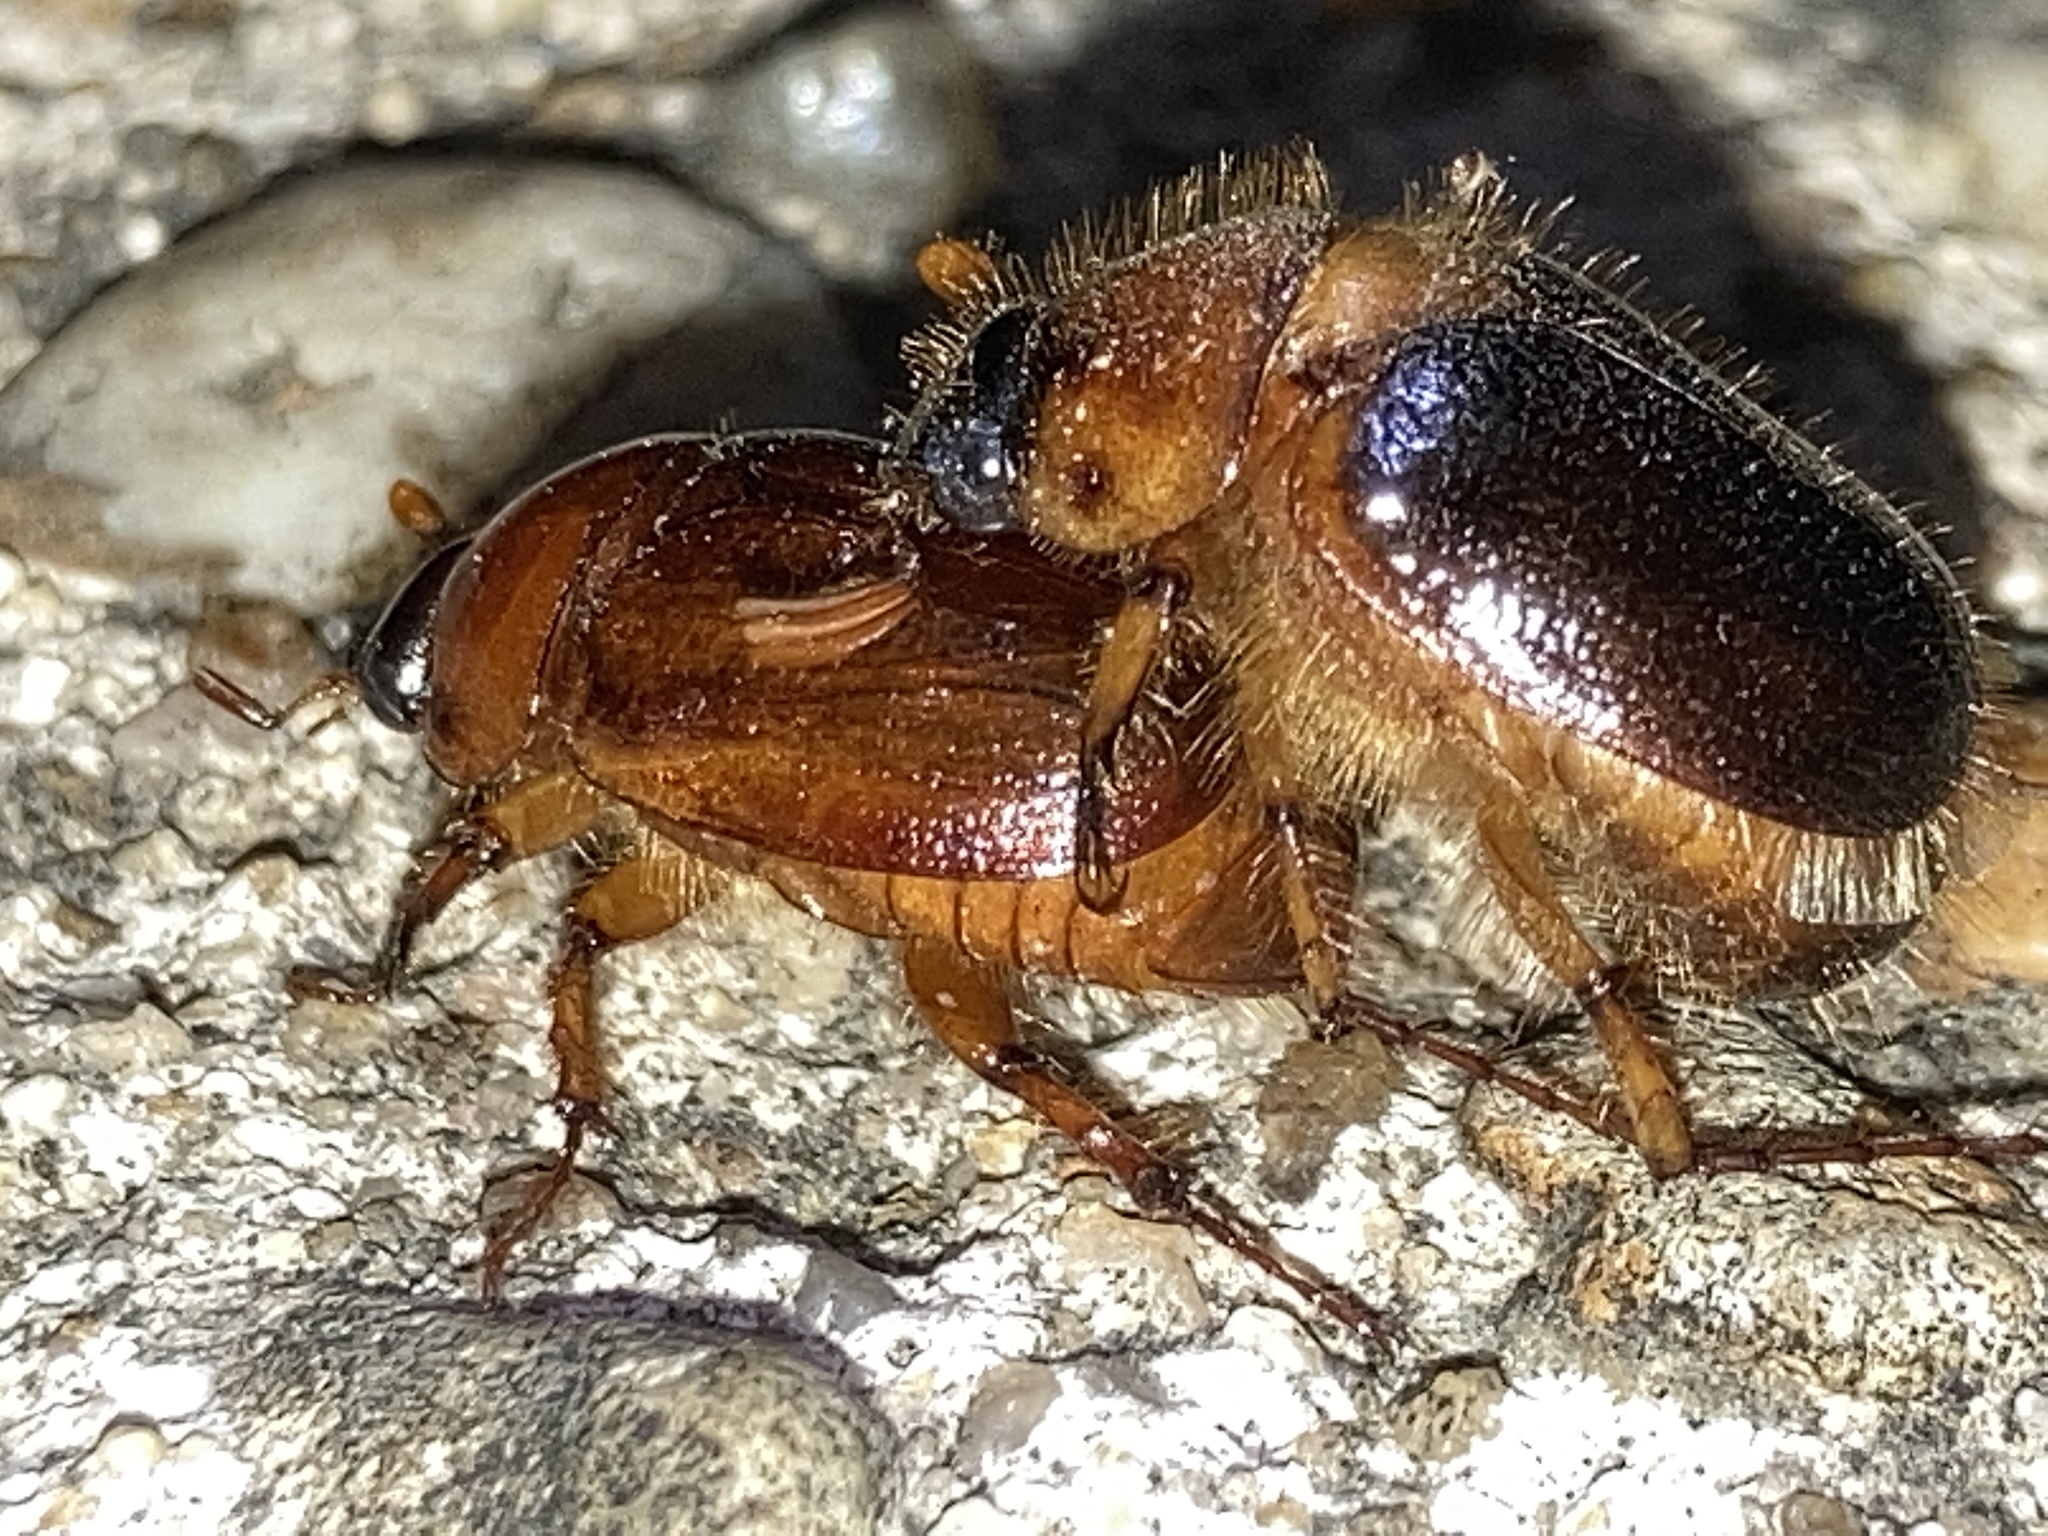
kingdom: Animalia
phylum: Arthropoda
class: Insecta
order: Coleoptera
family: Scarabaeidae
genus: Cyclocephala
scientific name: Cyclocephala robusta
